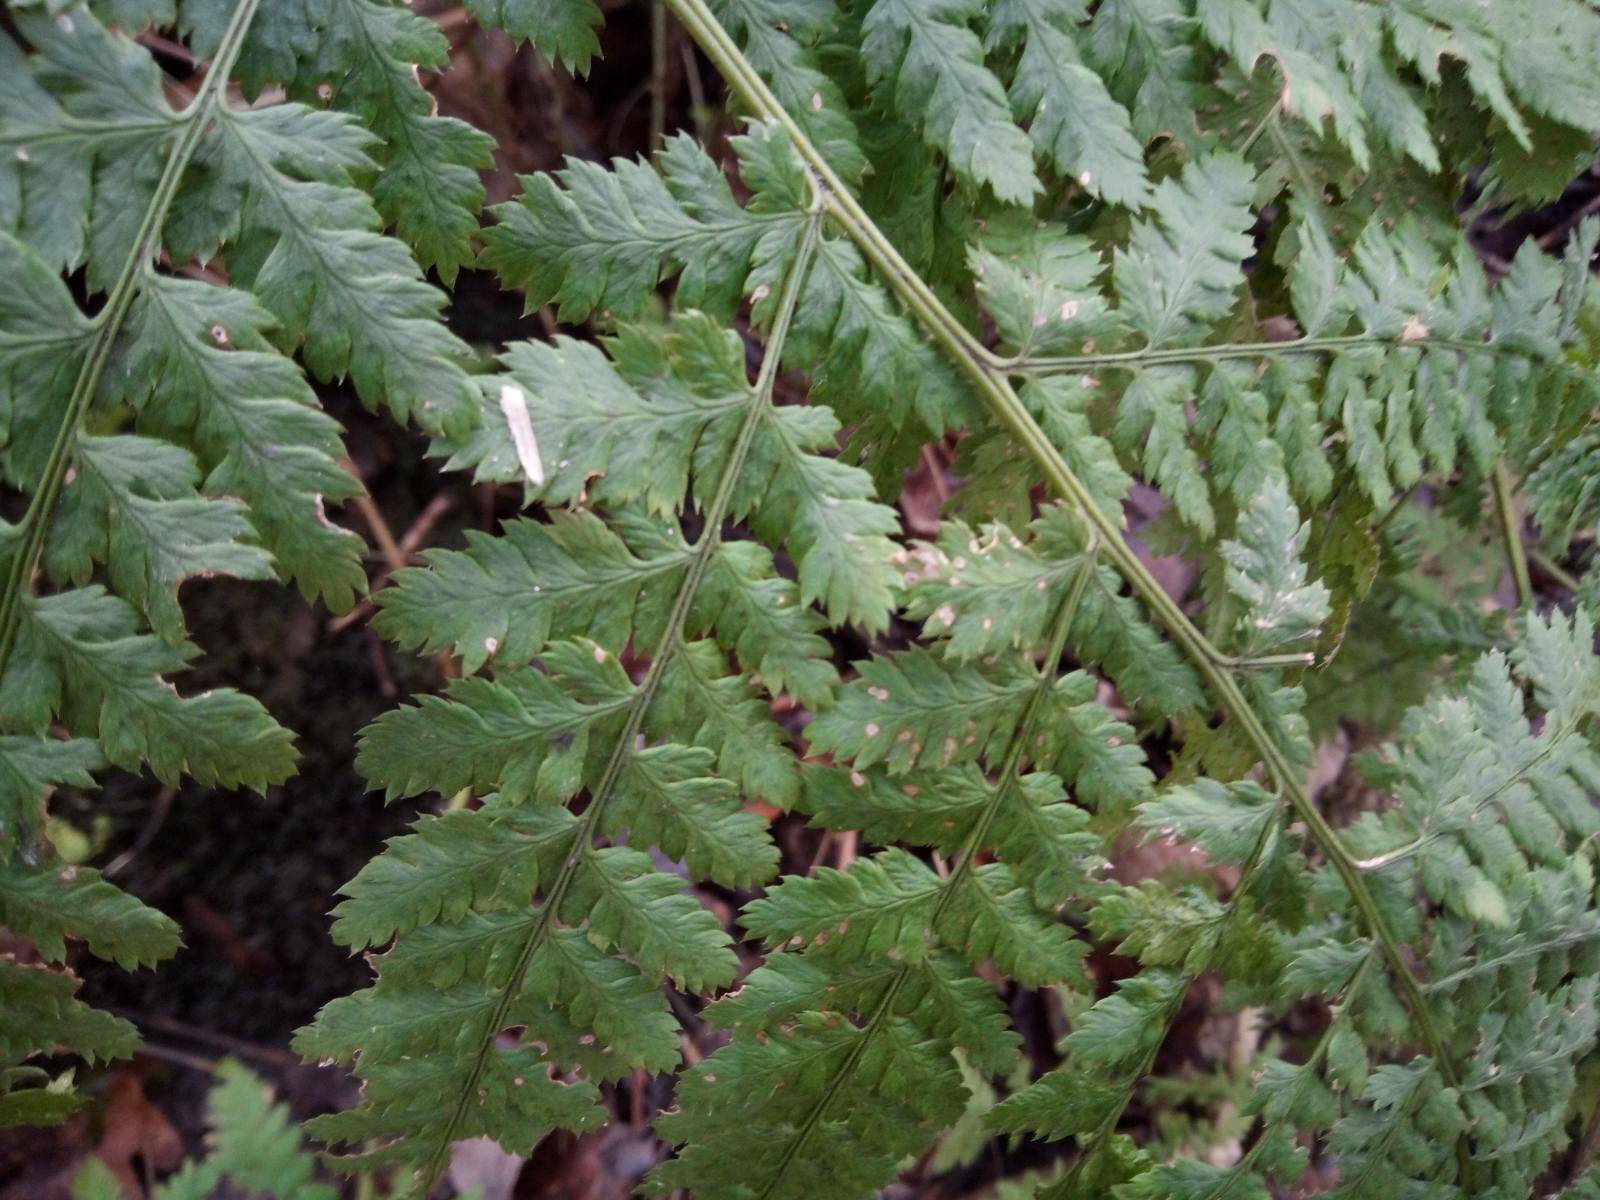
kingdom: Plantae
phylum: Tracheophyta
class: Polypodiopsida
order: Polypodiales
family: Dryopteridaceae
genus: Dryopteris
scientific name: Dryopteris carthusiana
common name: Narrow buckler-fern
